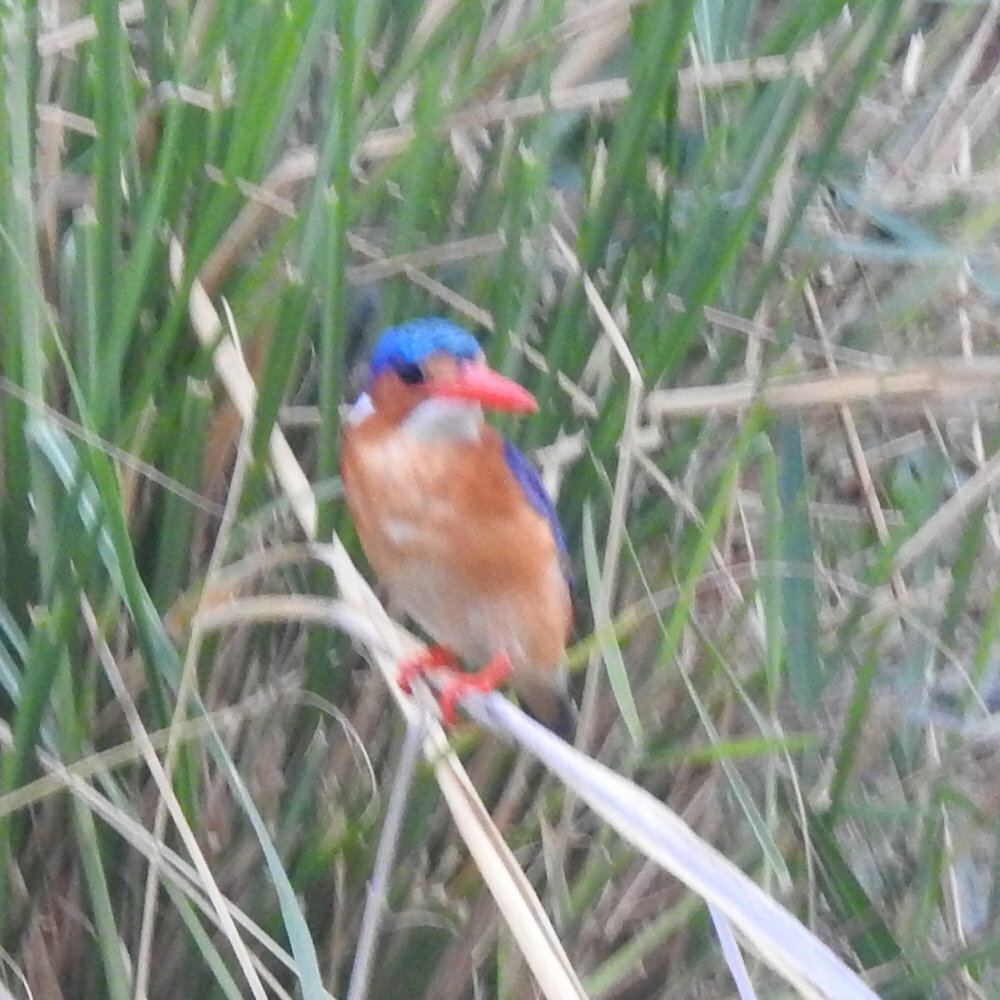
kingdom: Animalia
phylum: Chordata
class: Aves
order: Coraciiformes
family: Alcedinidae
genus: Corythornis
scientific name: Corythornis cristatus
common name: Malachite kingfisher
